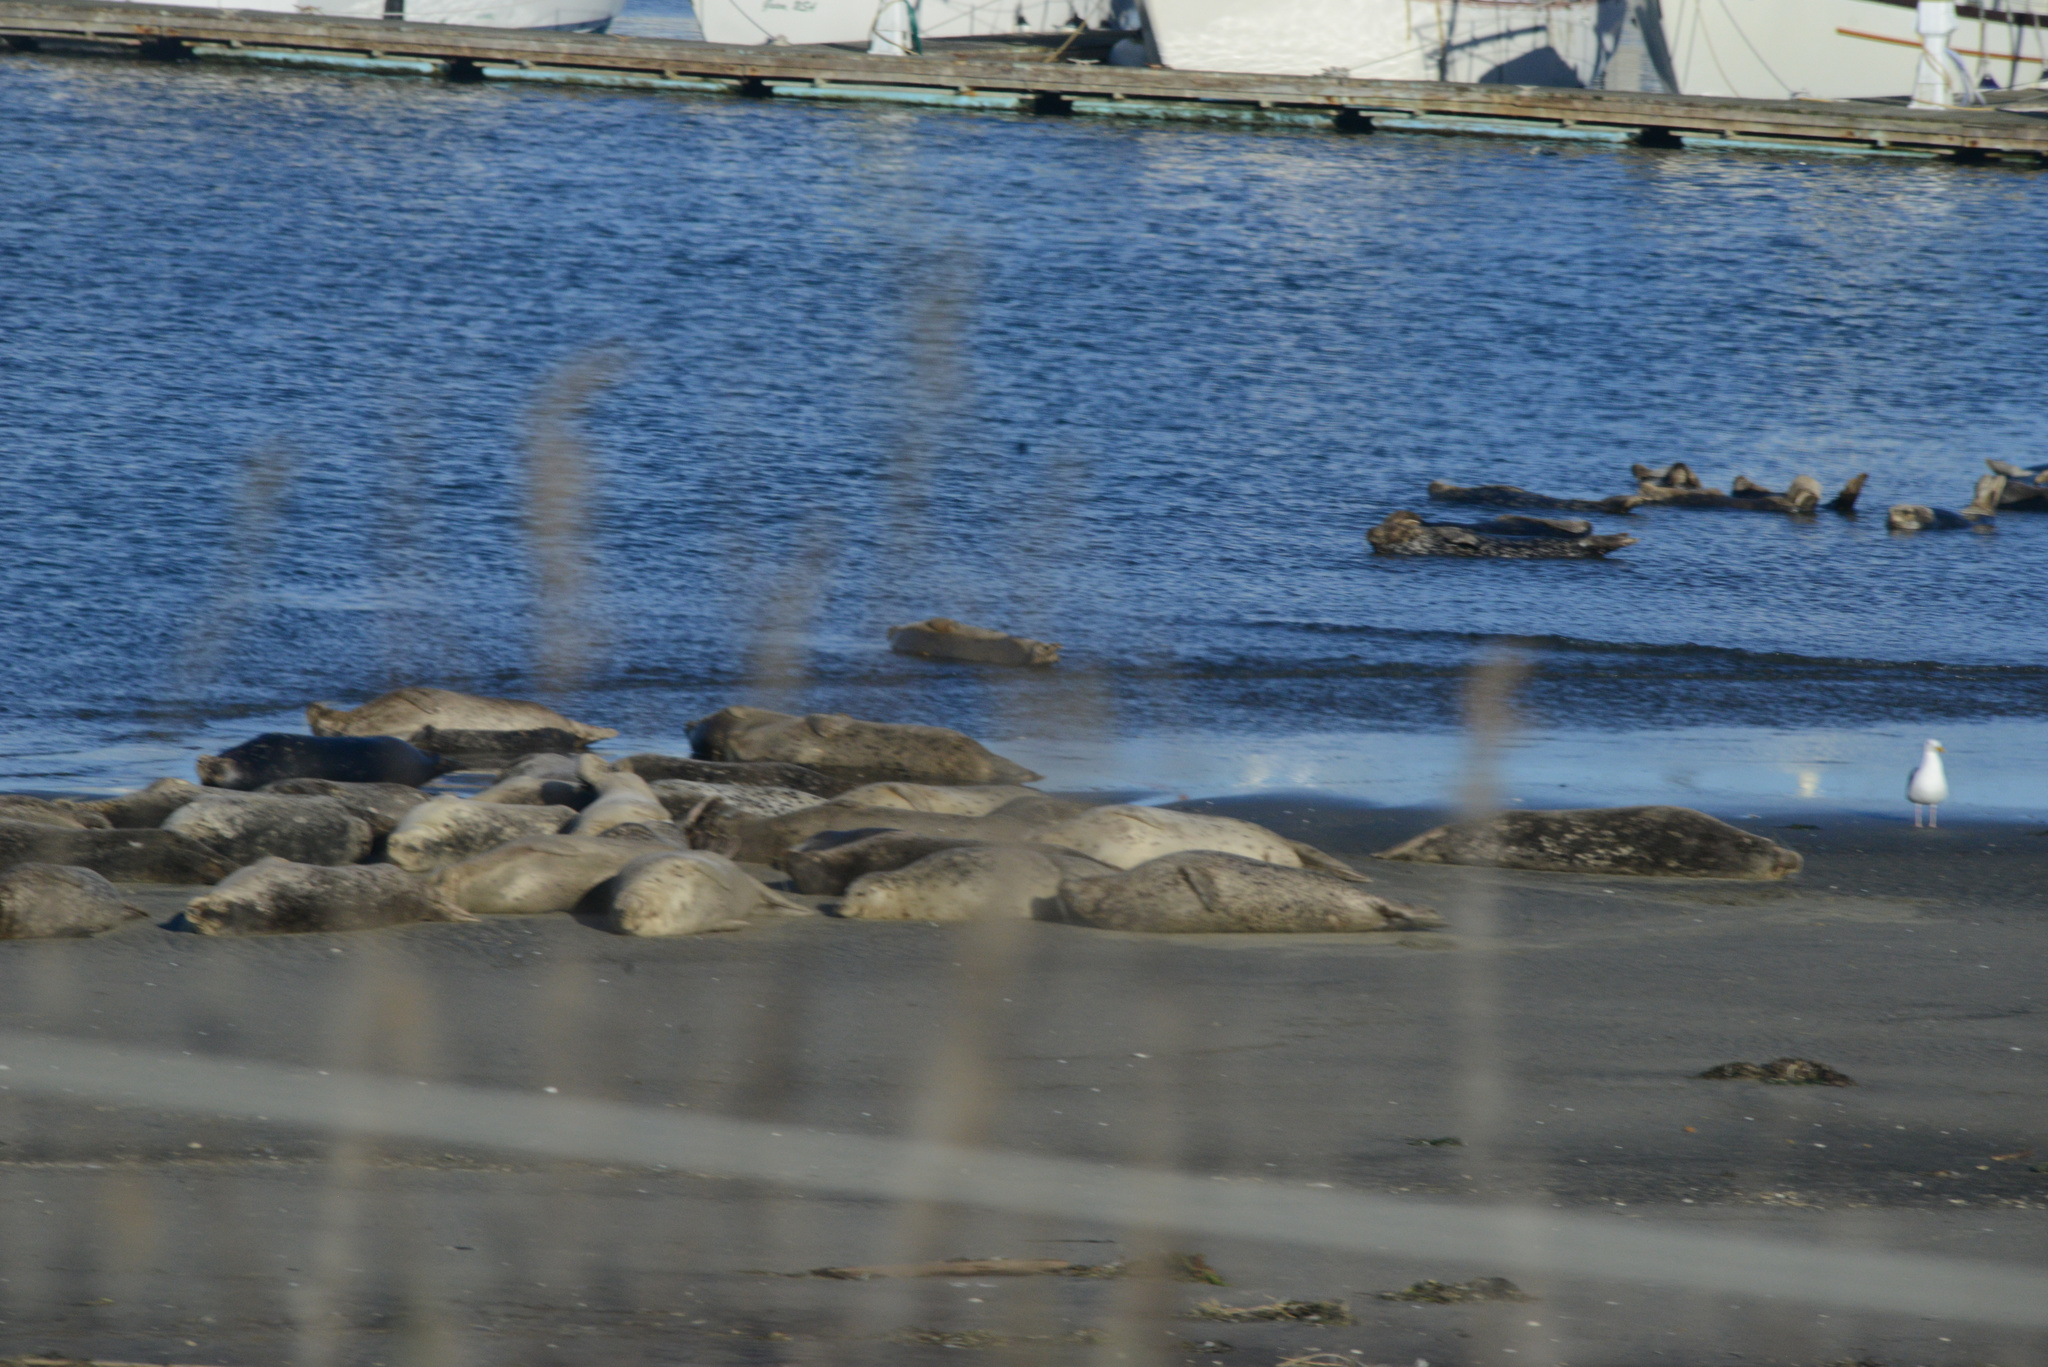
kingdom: Animalia
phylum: Chordata
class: Mammalia
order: Carnivora
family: Mustelidae
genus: Enhydra
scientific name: Enhydra lutris
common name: Sea otter
